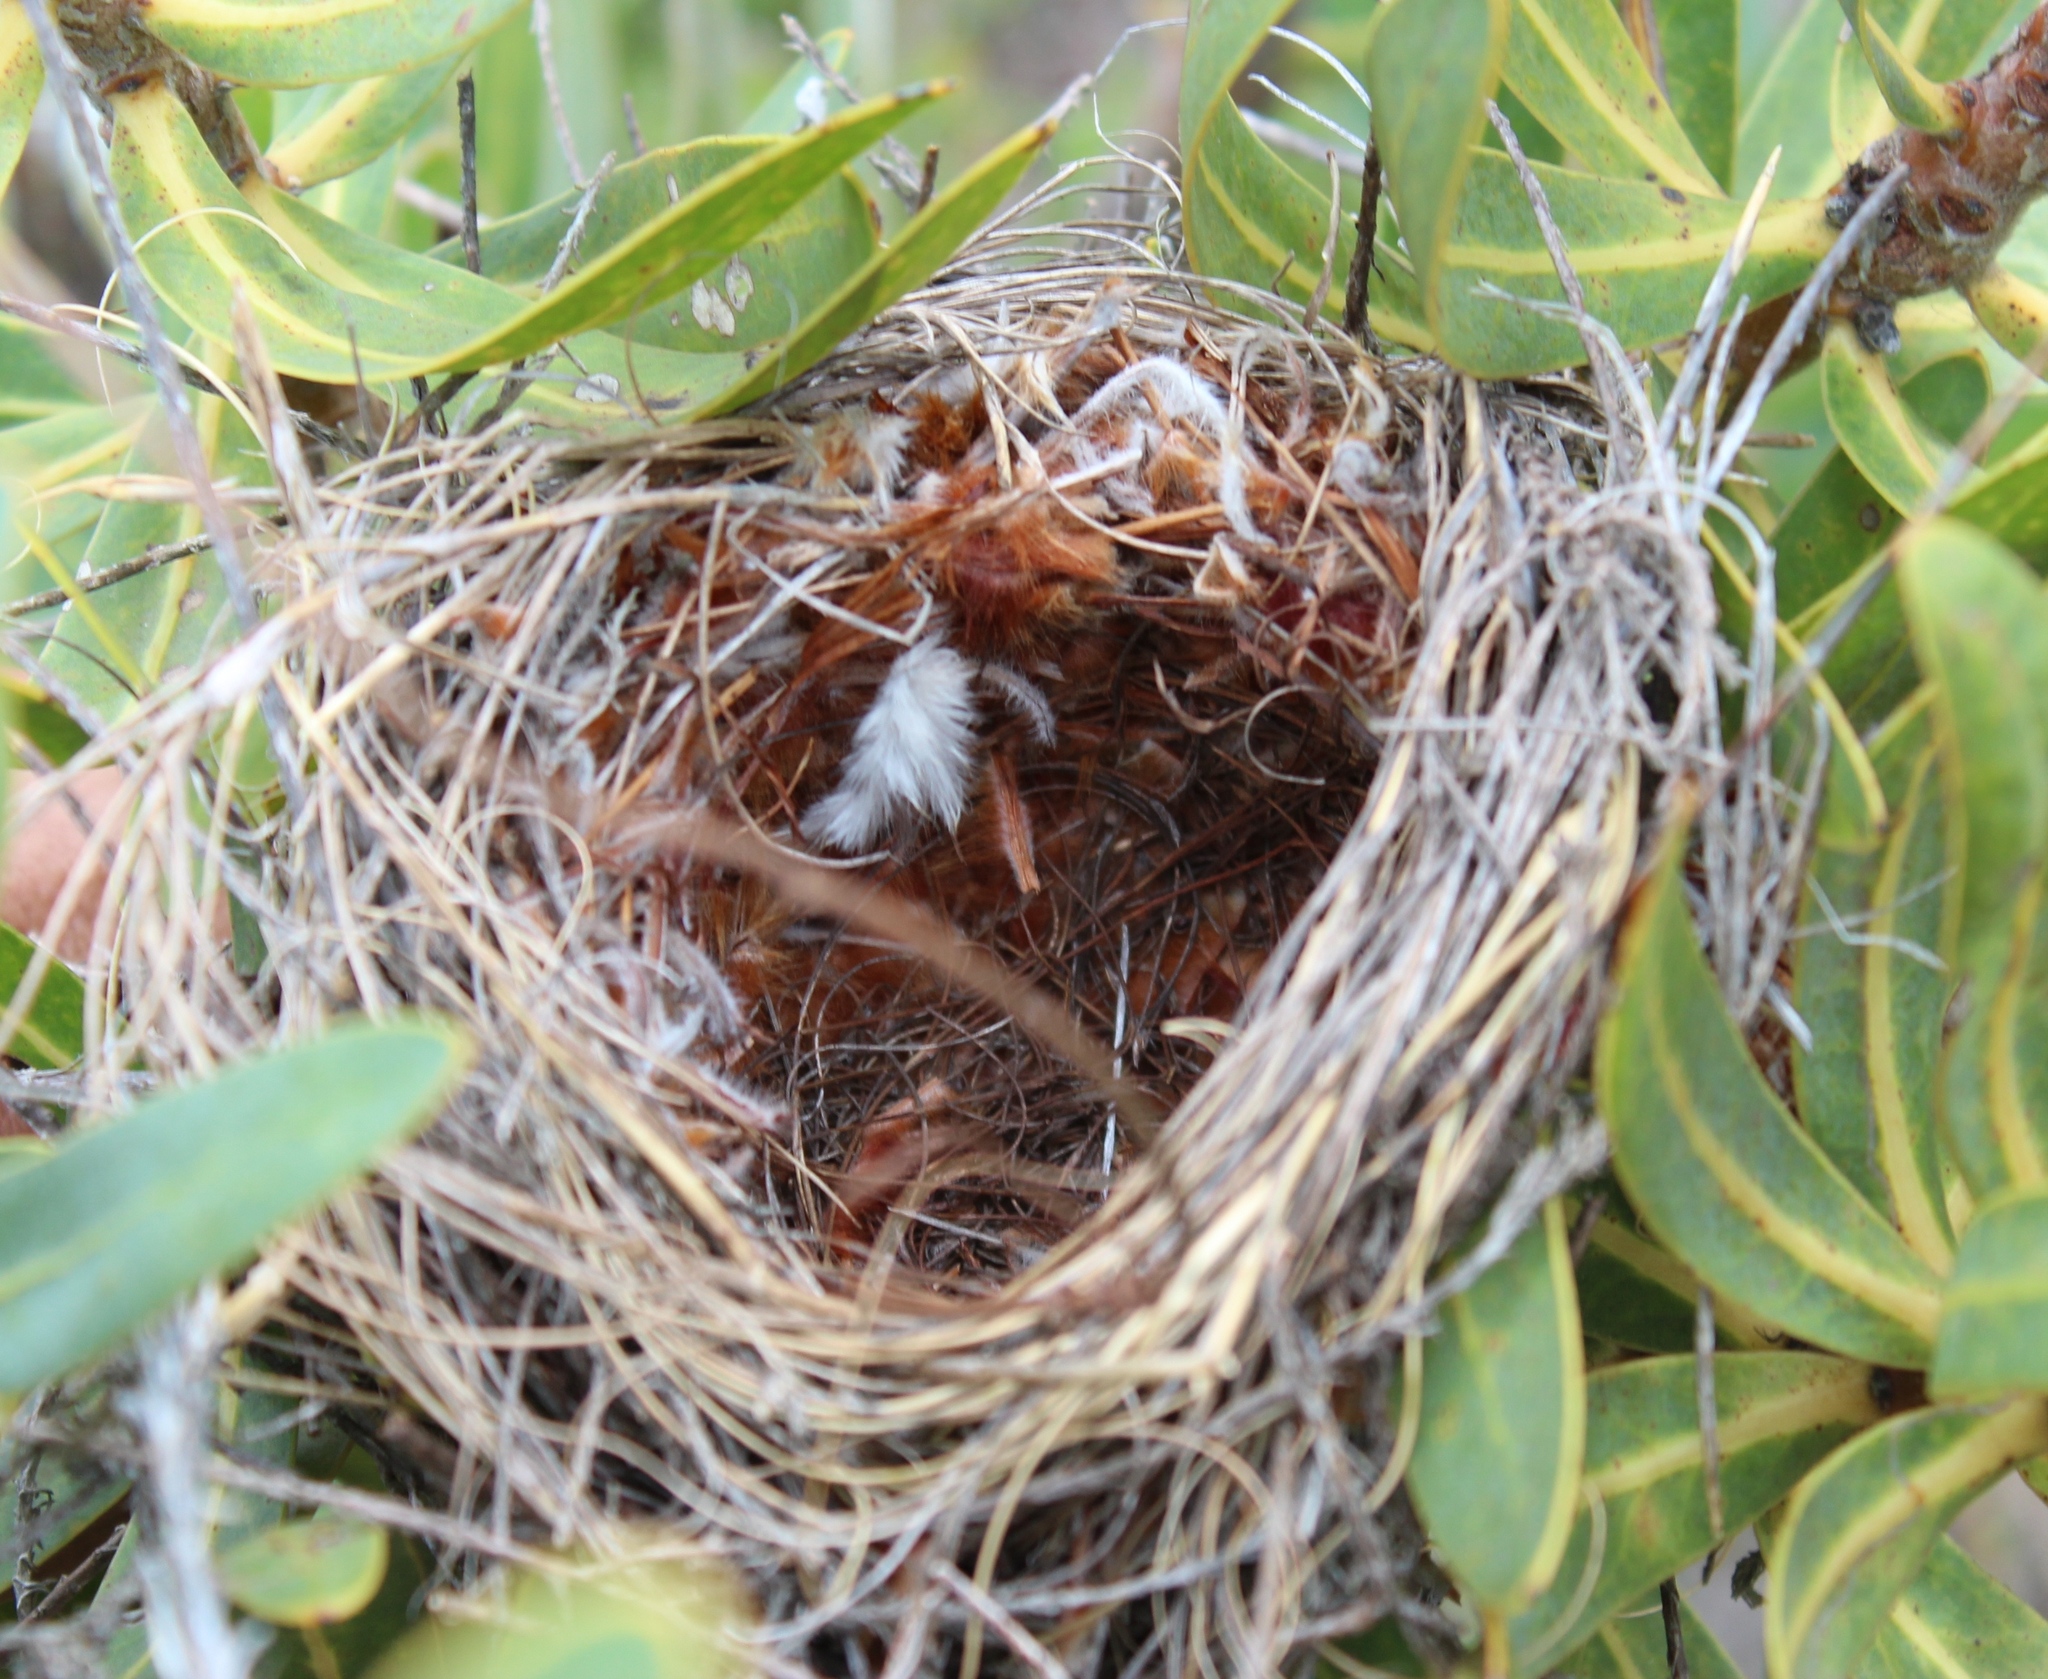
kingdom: Animalia
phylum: Chordata
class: Aves
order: Passeriformes
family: Promeropidae
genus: Promerops
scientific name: Promerops cafer
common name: Cape sugarbird
